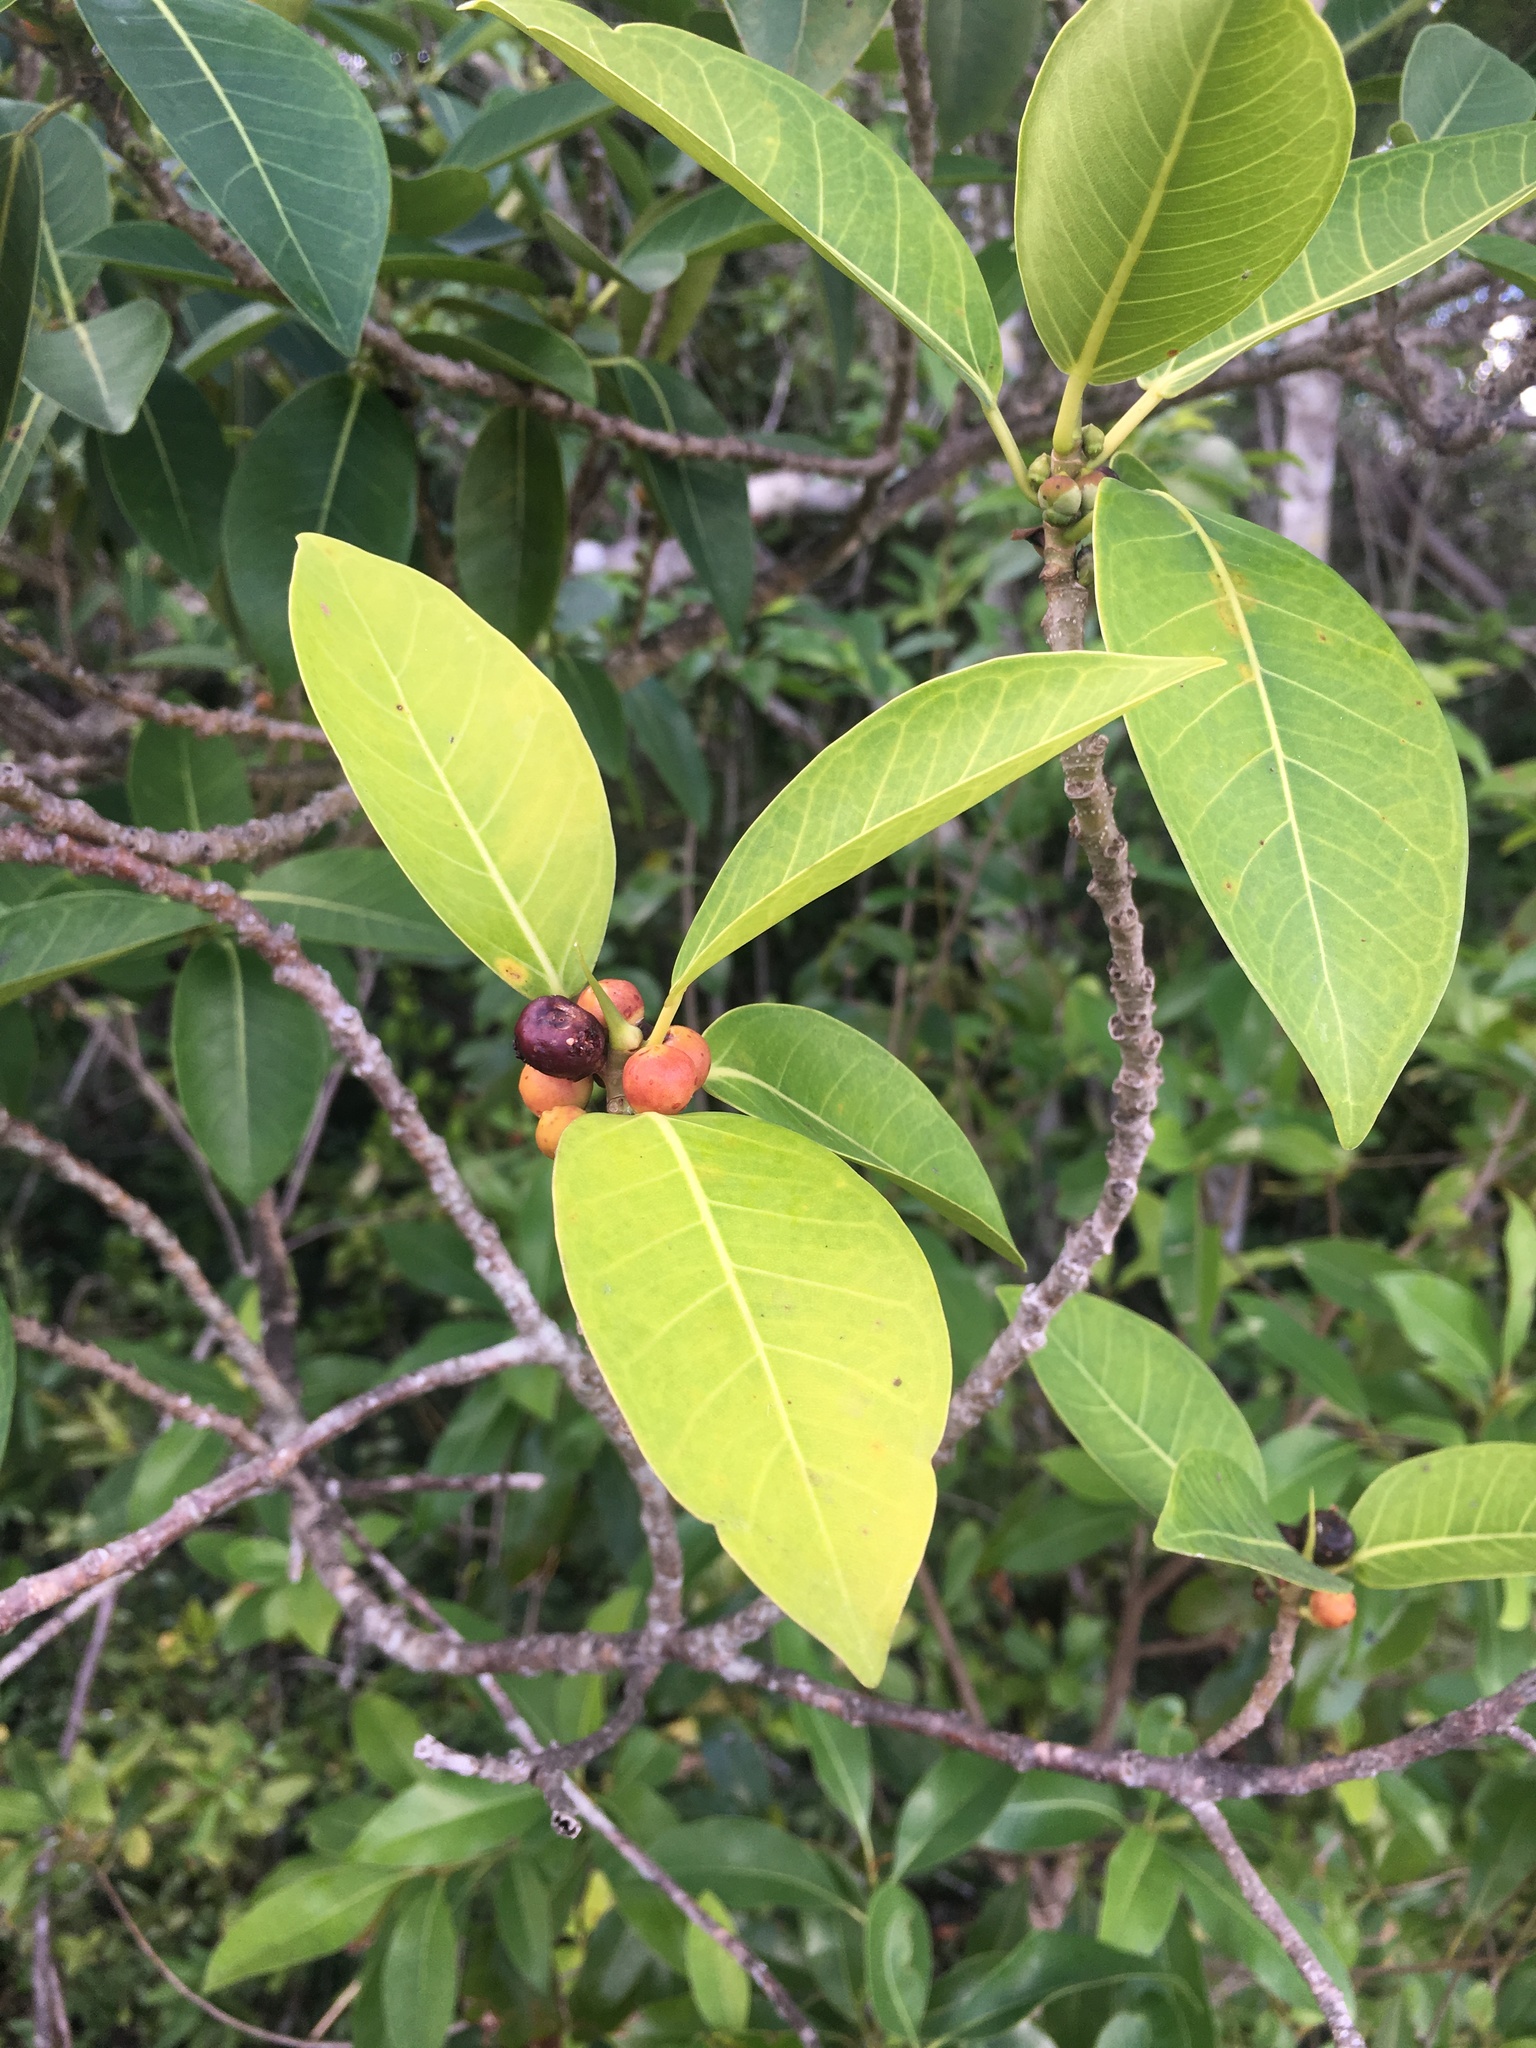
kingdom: Plantae
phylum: Tracheophyta
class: Magnoliopsida
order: Rosales
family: Moraceae
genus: Ficus
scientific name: Ficus aurea
